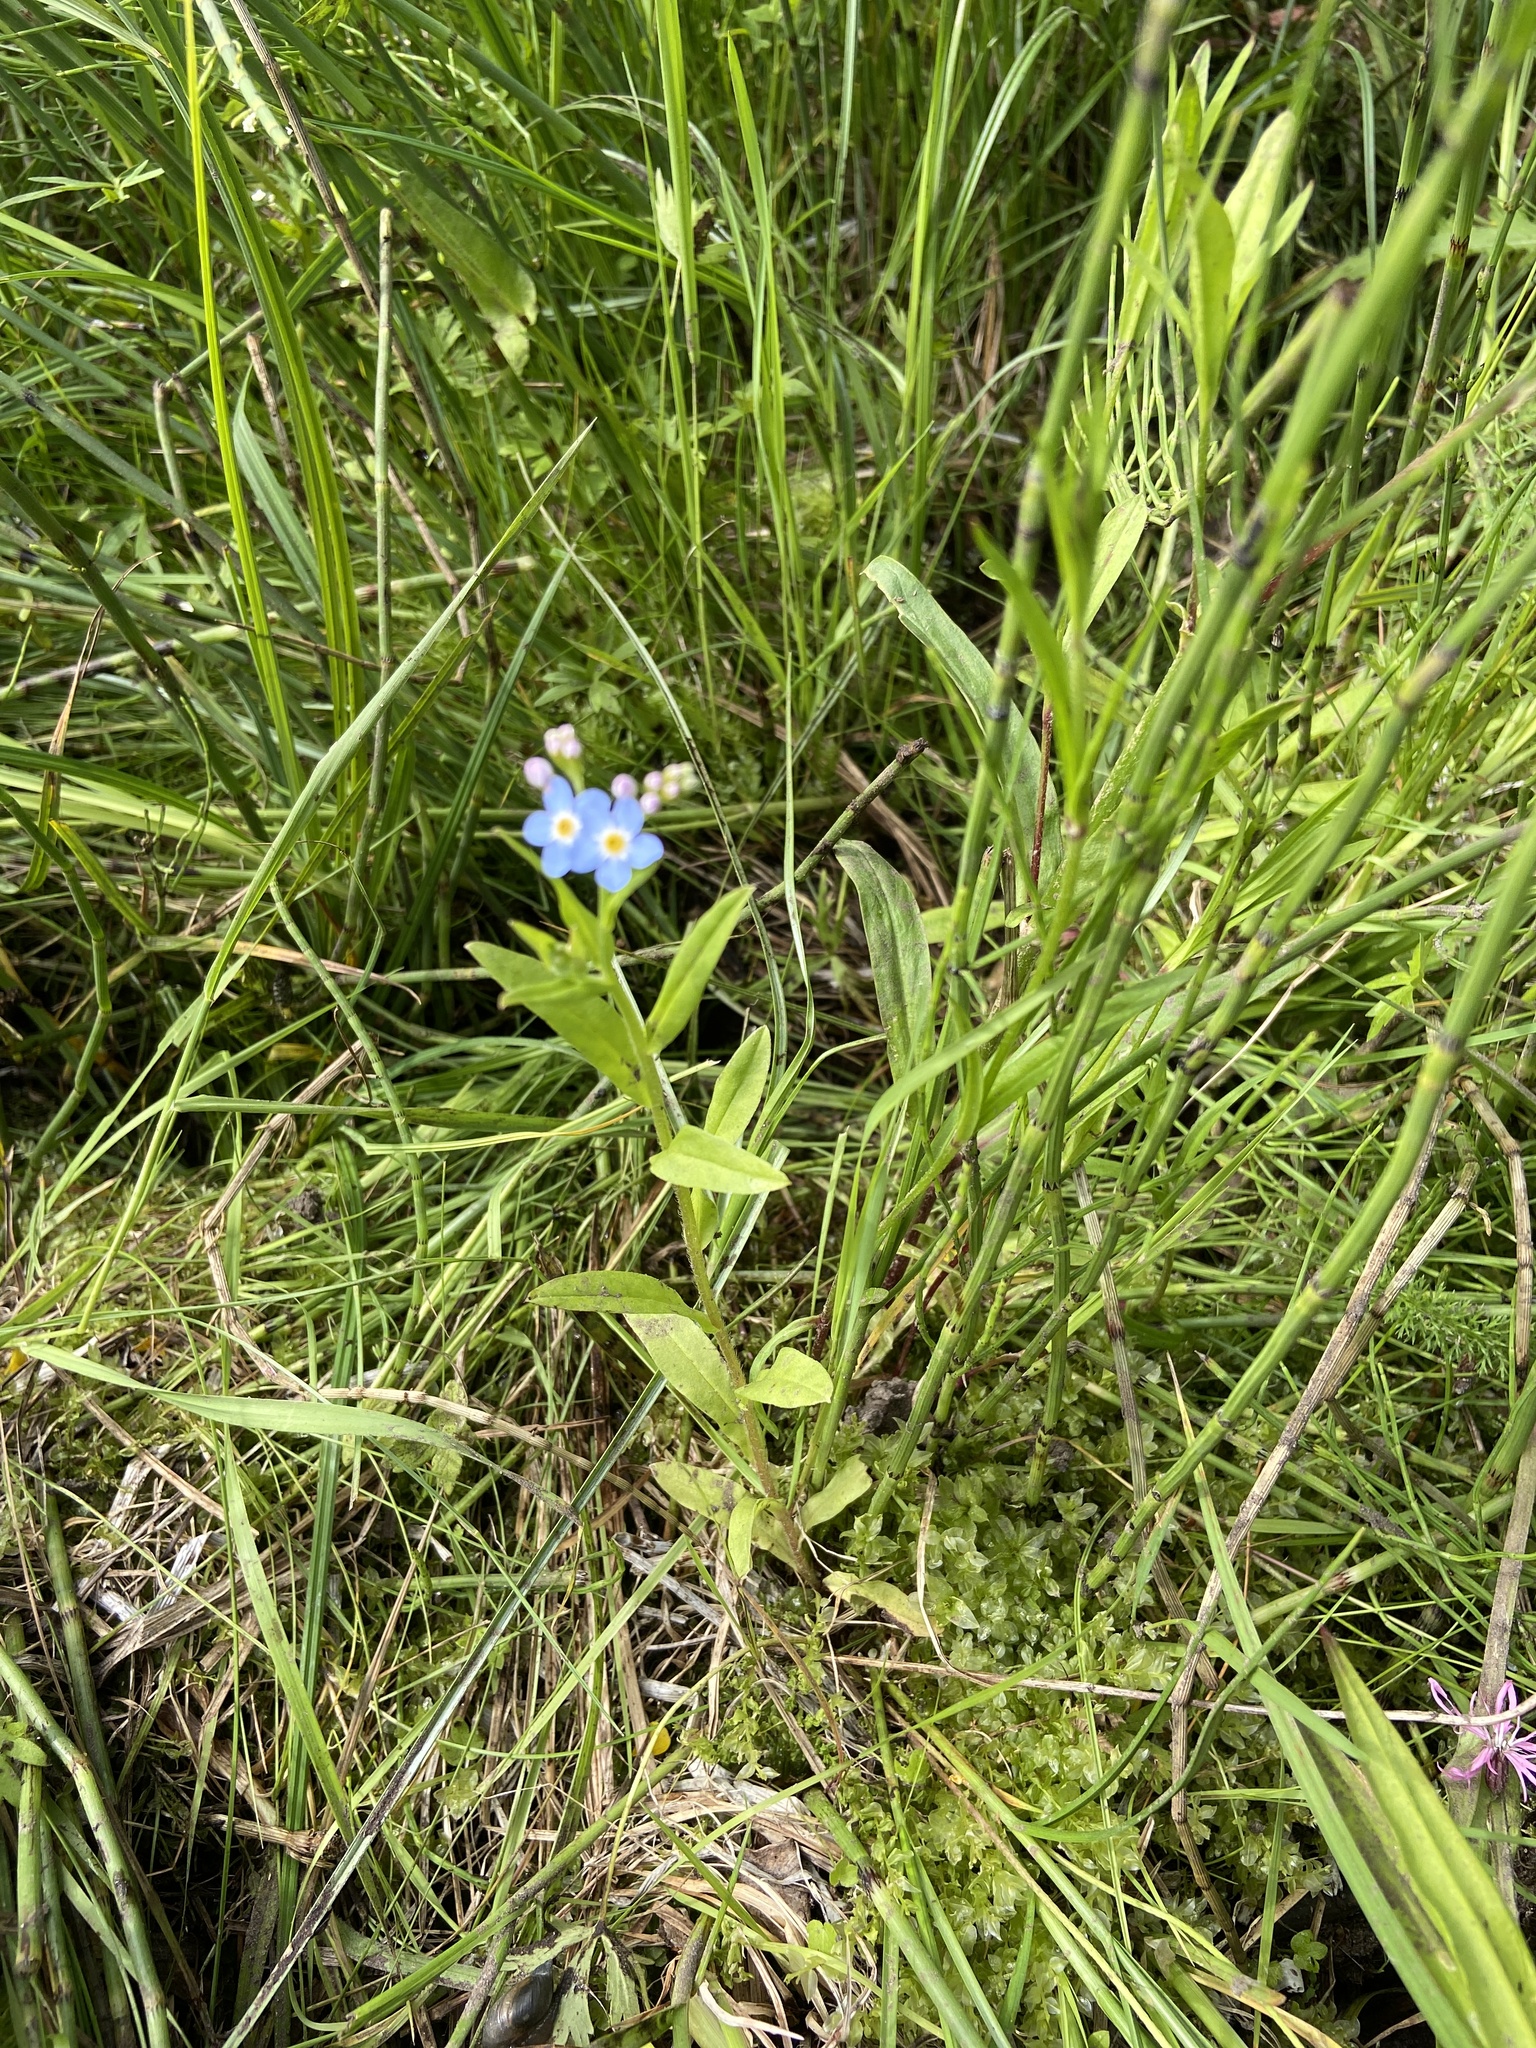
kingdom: Plantae
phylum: Tracheophyta
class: Magnoliopsida
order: Boraginales
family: Boraginaceae
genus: Myosotis
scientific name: Myosotis scorpioides
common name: Water forget-me-not
